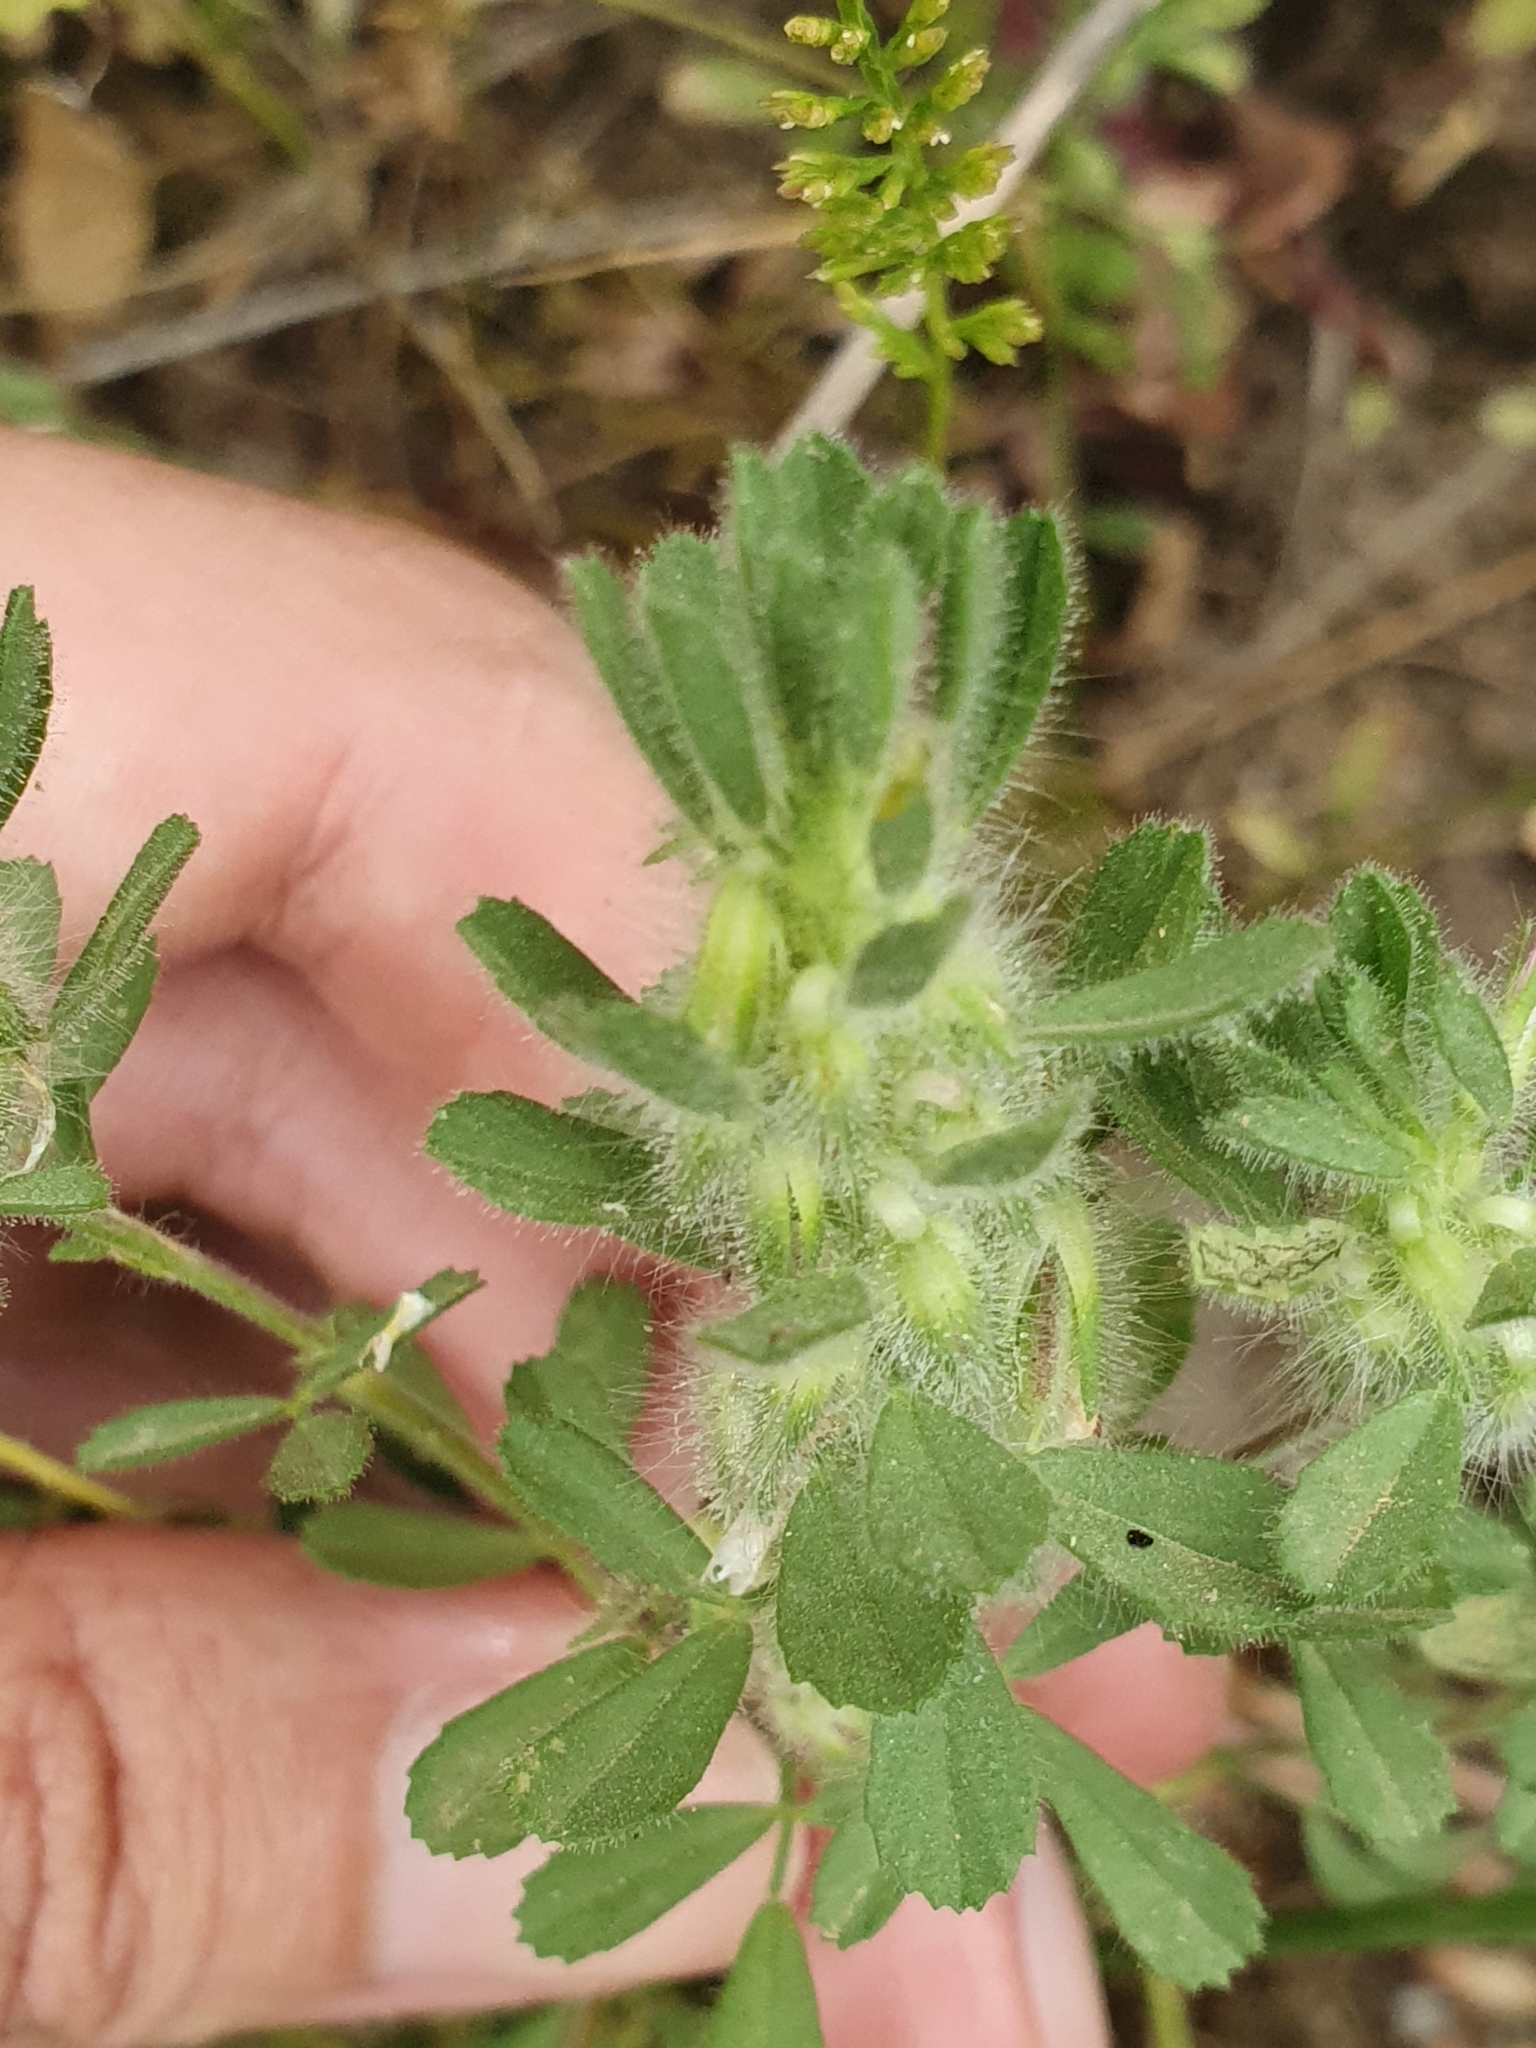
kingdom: Plantae
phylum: Tracheophyta
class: Magnoliopsida
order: Fabales
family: Fabaceae
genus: Ononis
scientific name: Ononis reclinata
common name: Small restharrow
